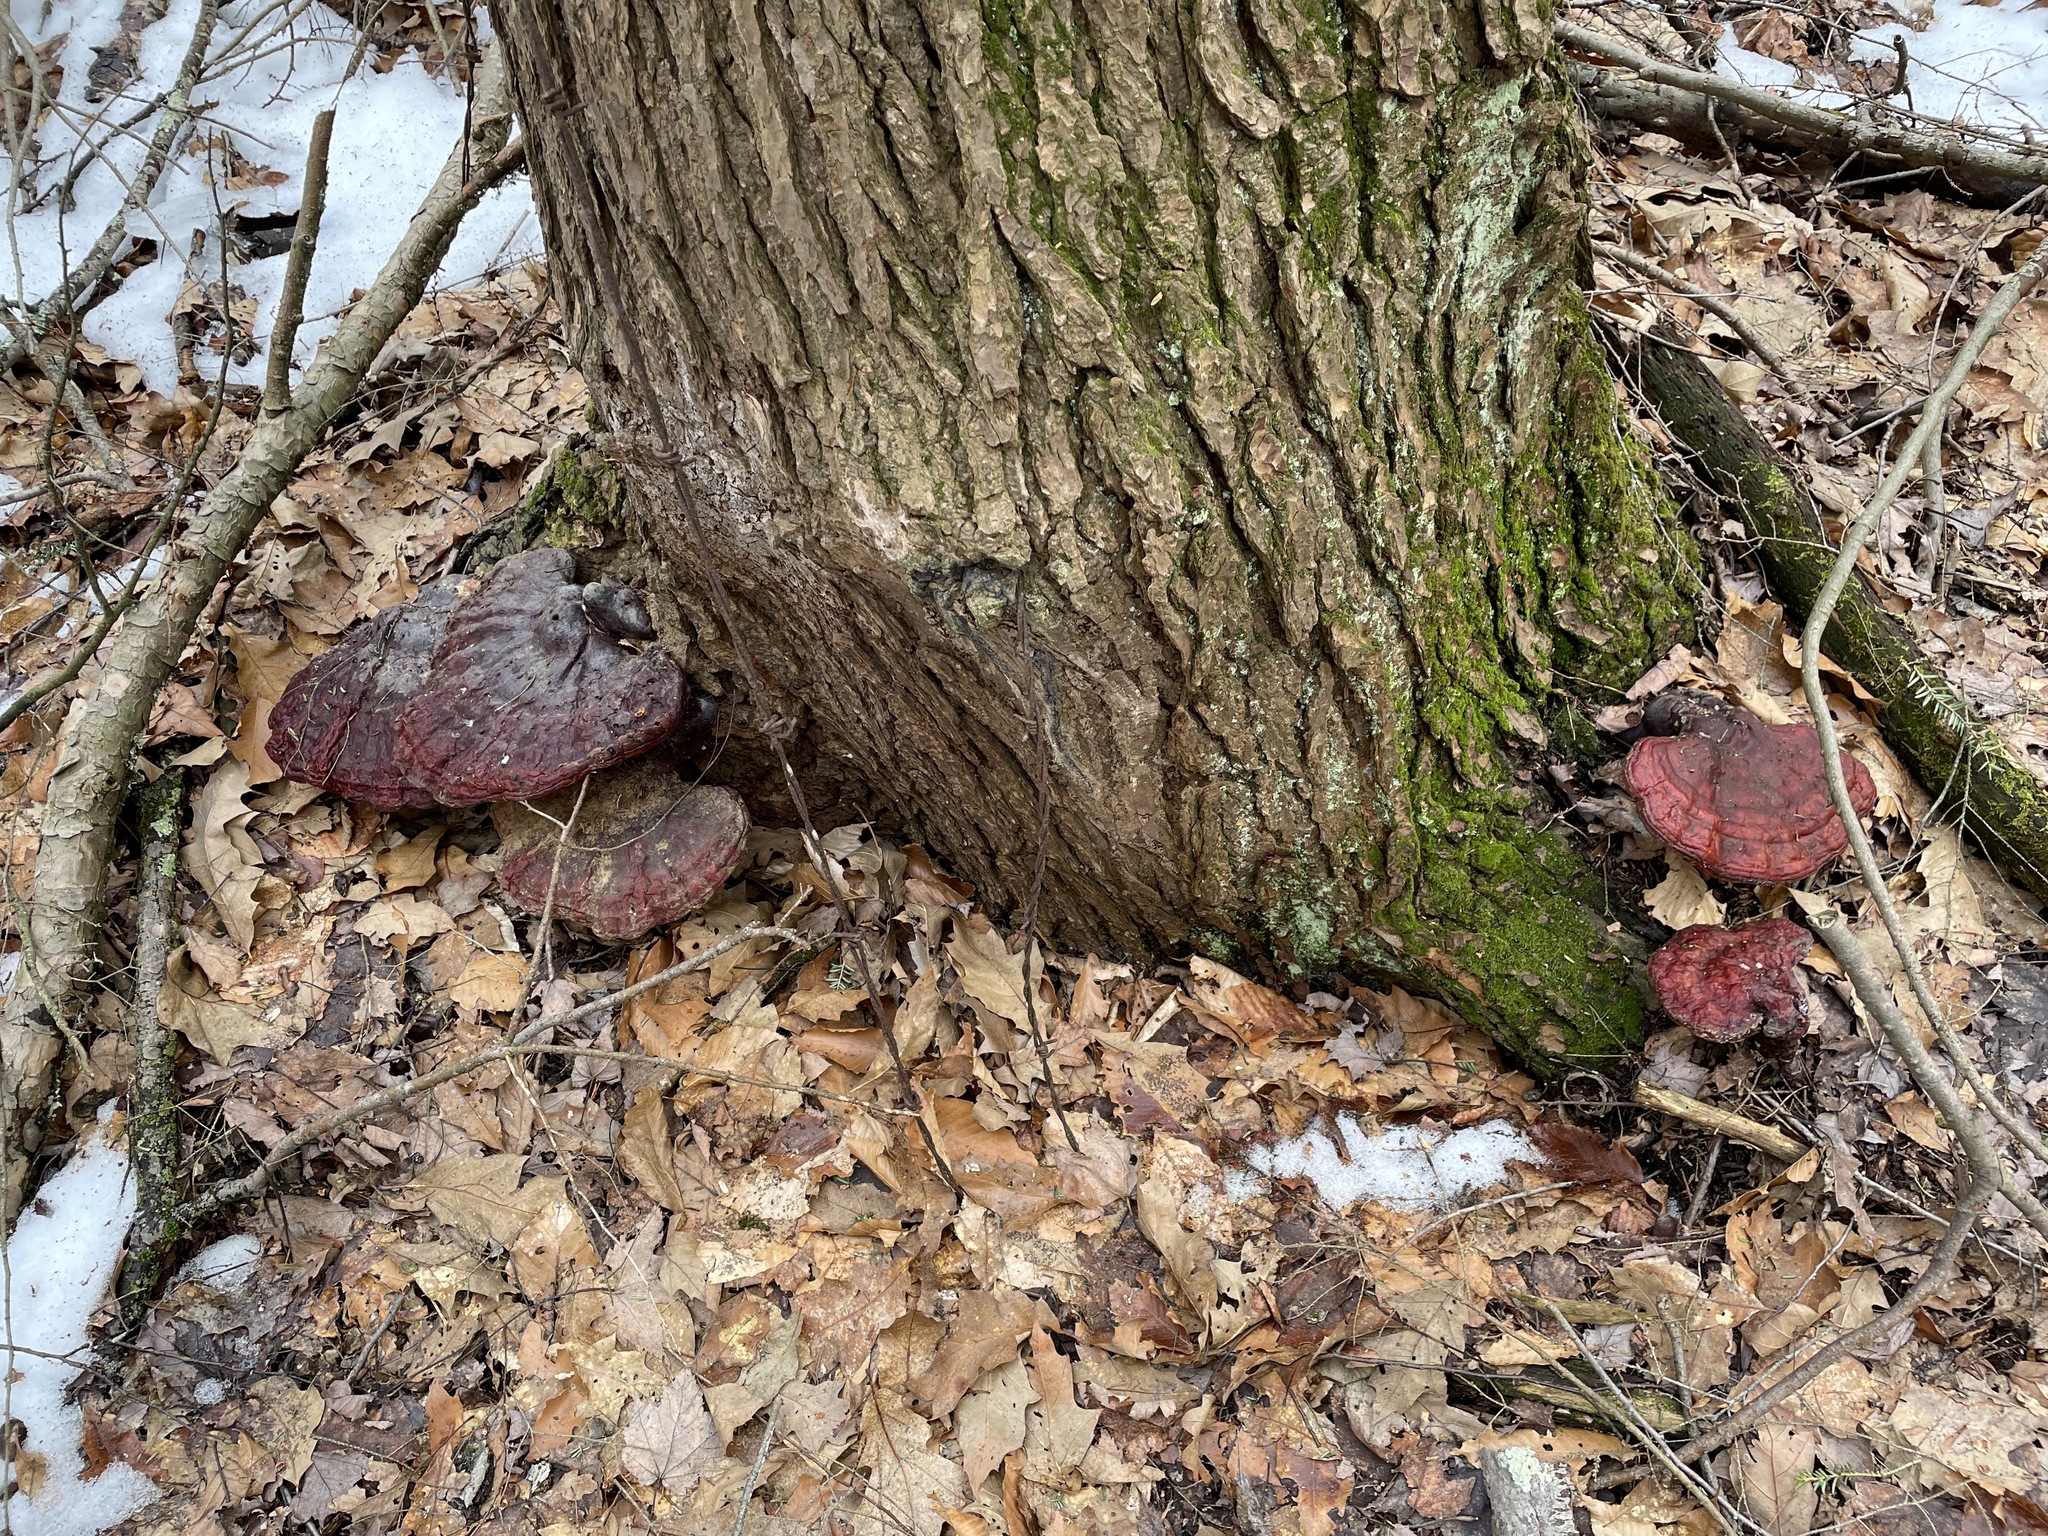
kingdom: Fungi
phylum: Basidiomycota
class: Agaricomycetes
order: Polyporales
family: Polyporaceae
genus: Ganoderma
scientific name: Ganoderma tsugae
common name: Hemlock varnish shelf
